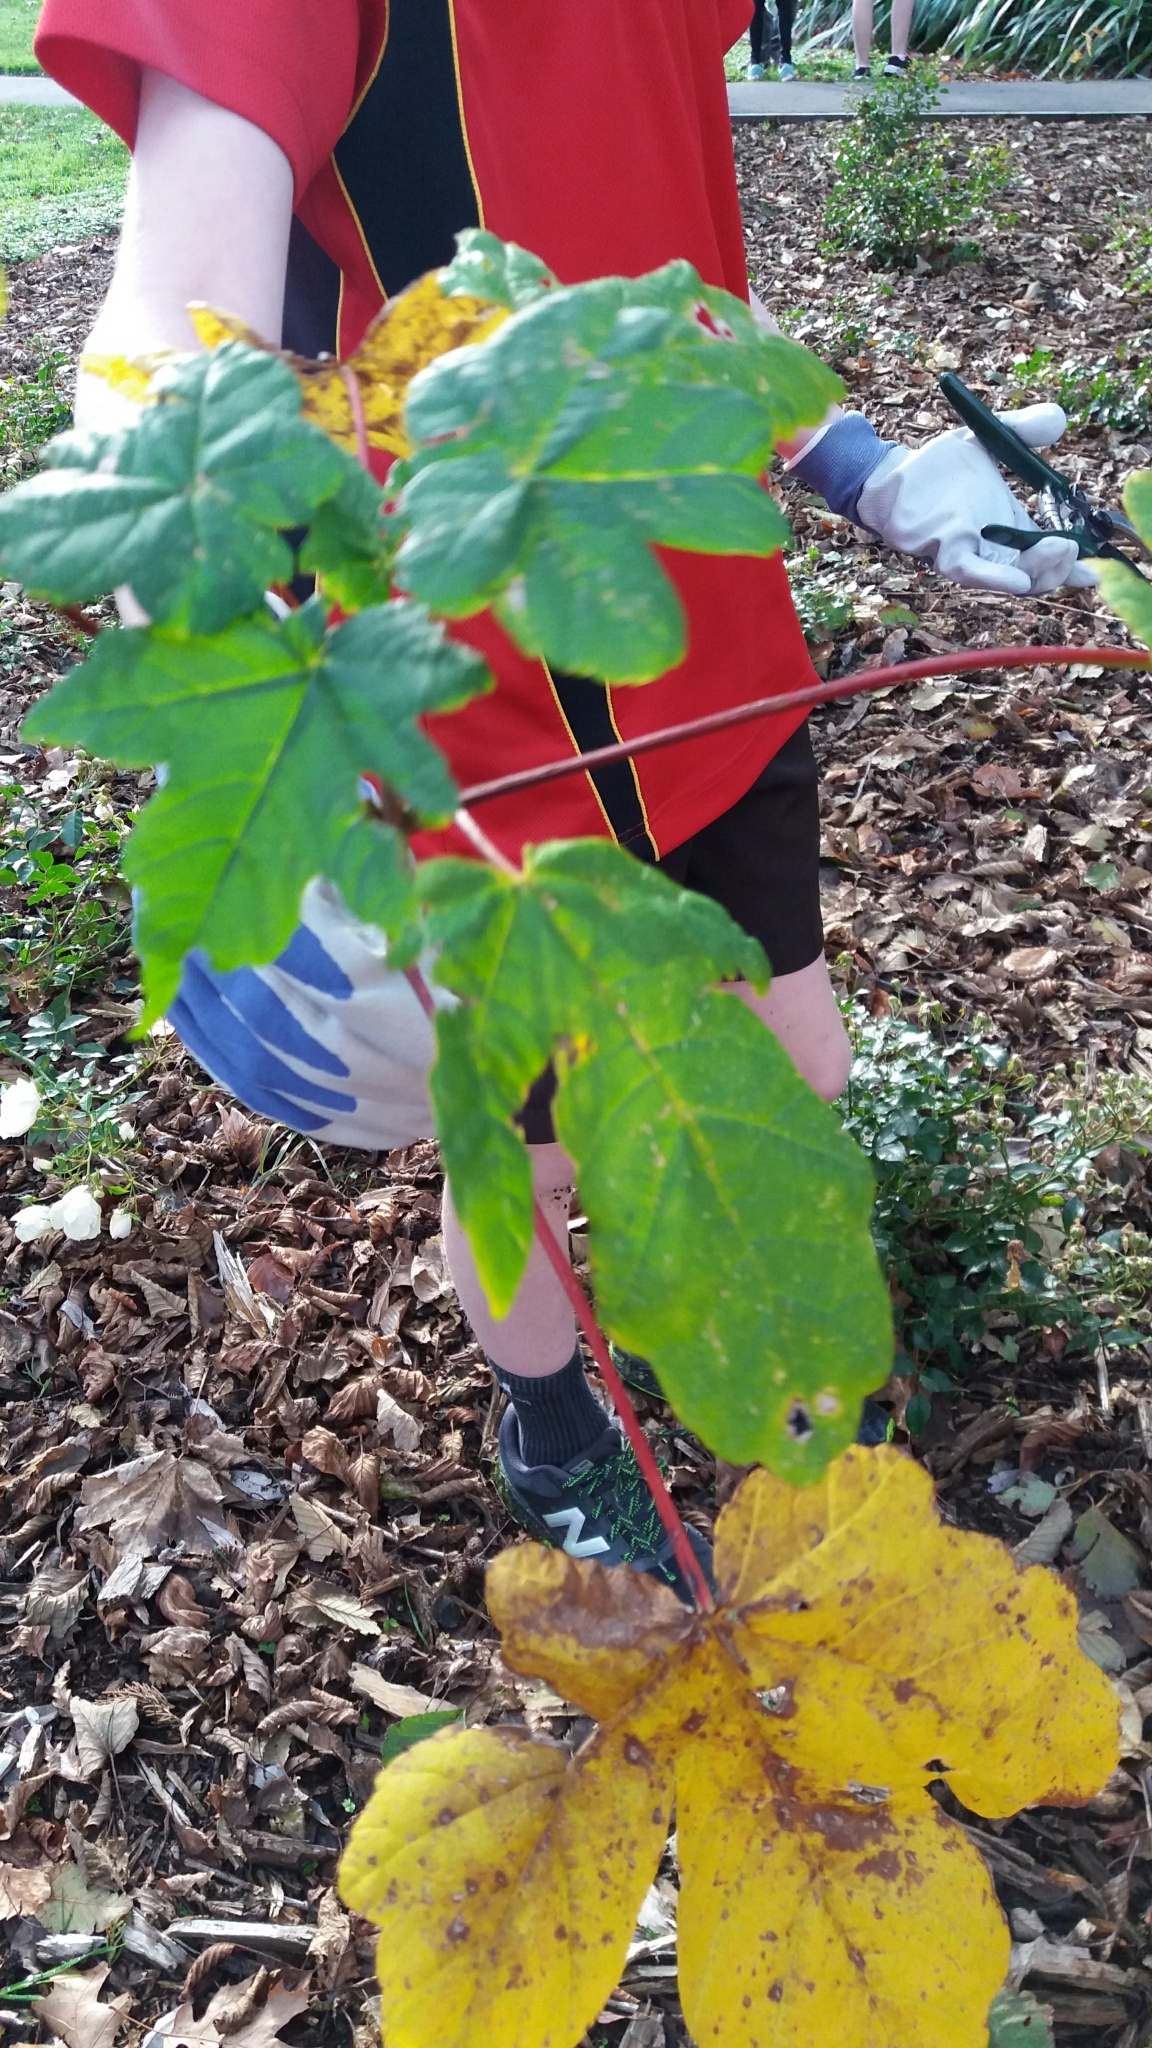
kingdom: Plantae
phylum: Tracheophyta
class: Magnoliopsida
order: Sapindales
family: Sapindaceae
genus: Acer
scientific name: Acer pseudoplatanus
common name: Sycamore
